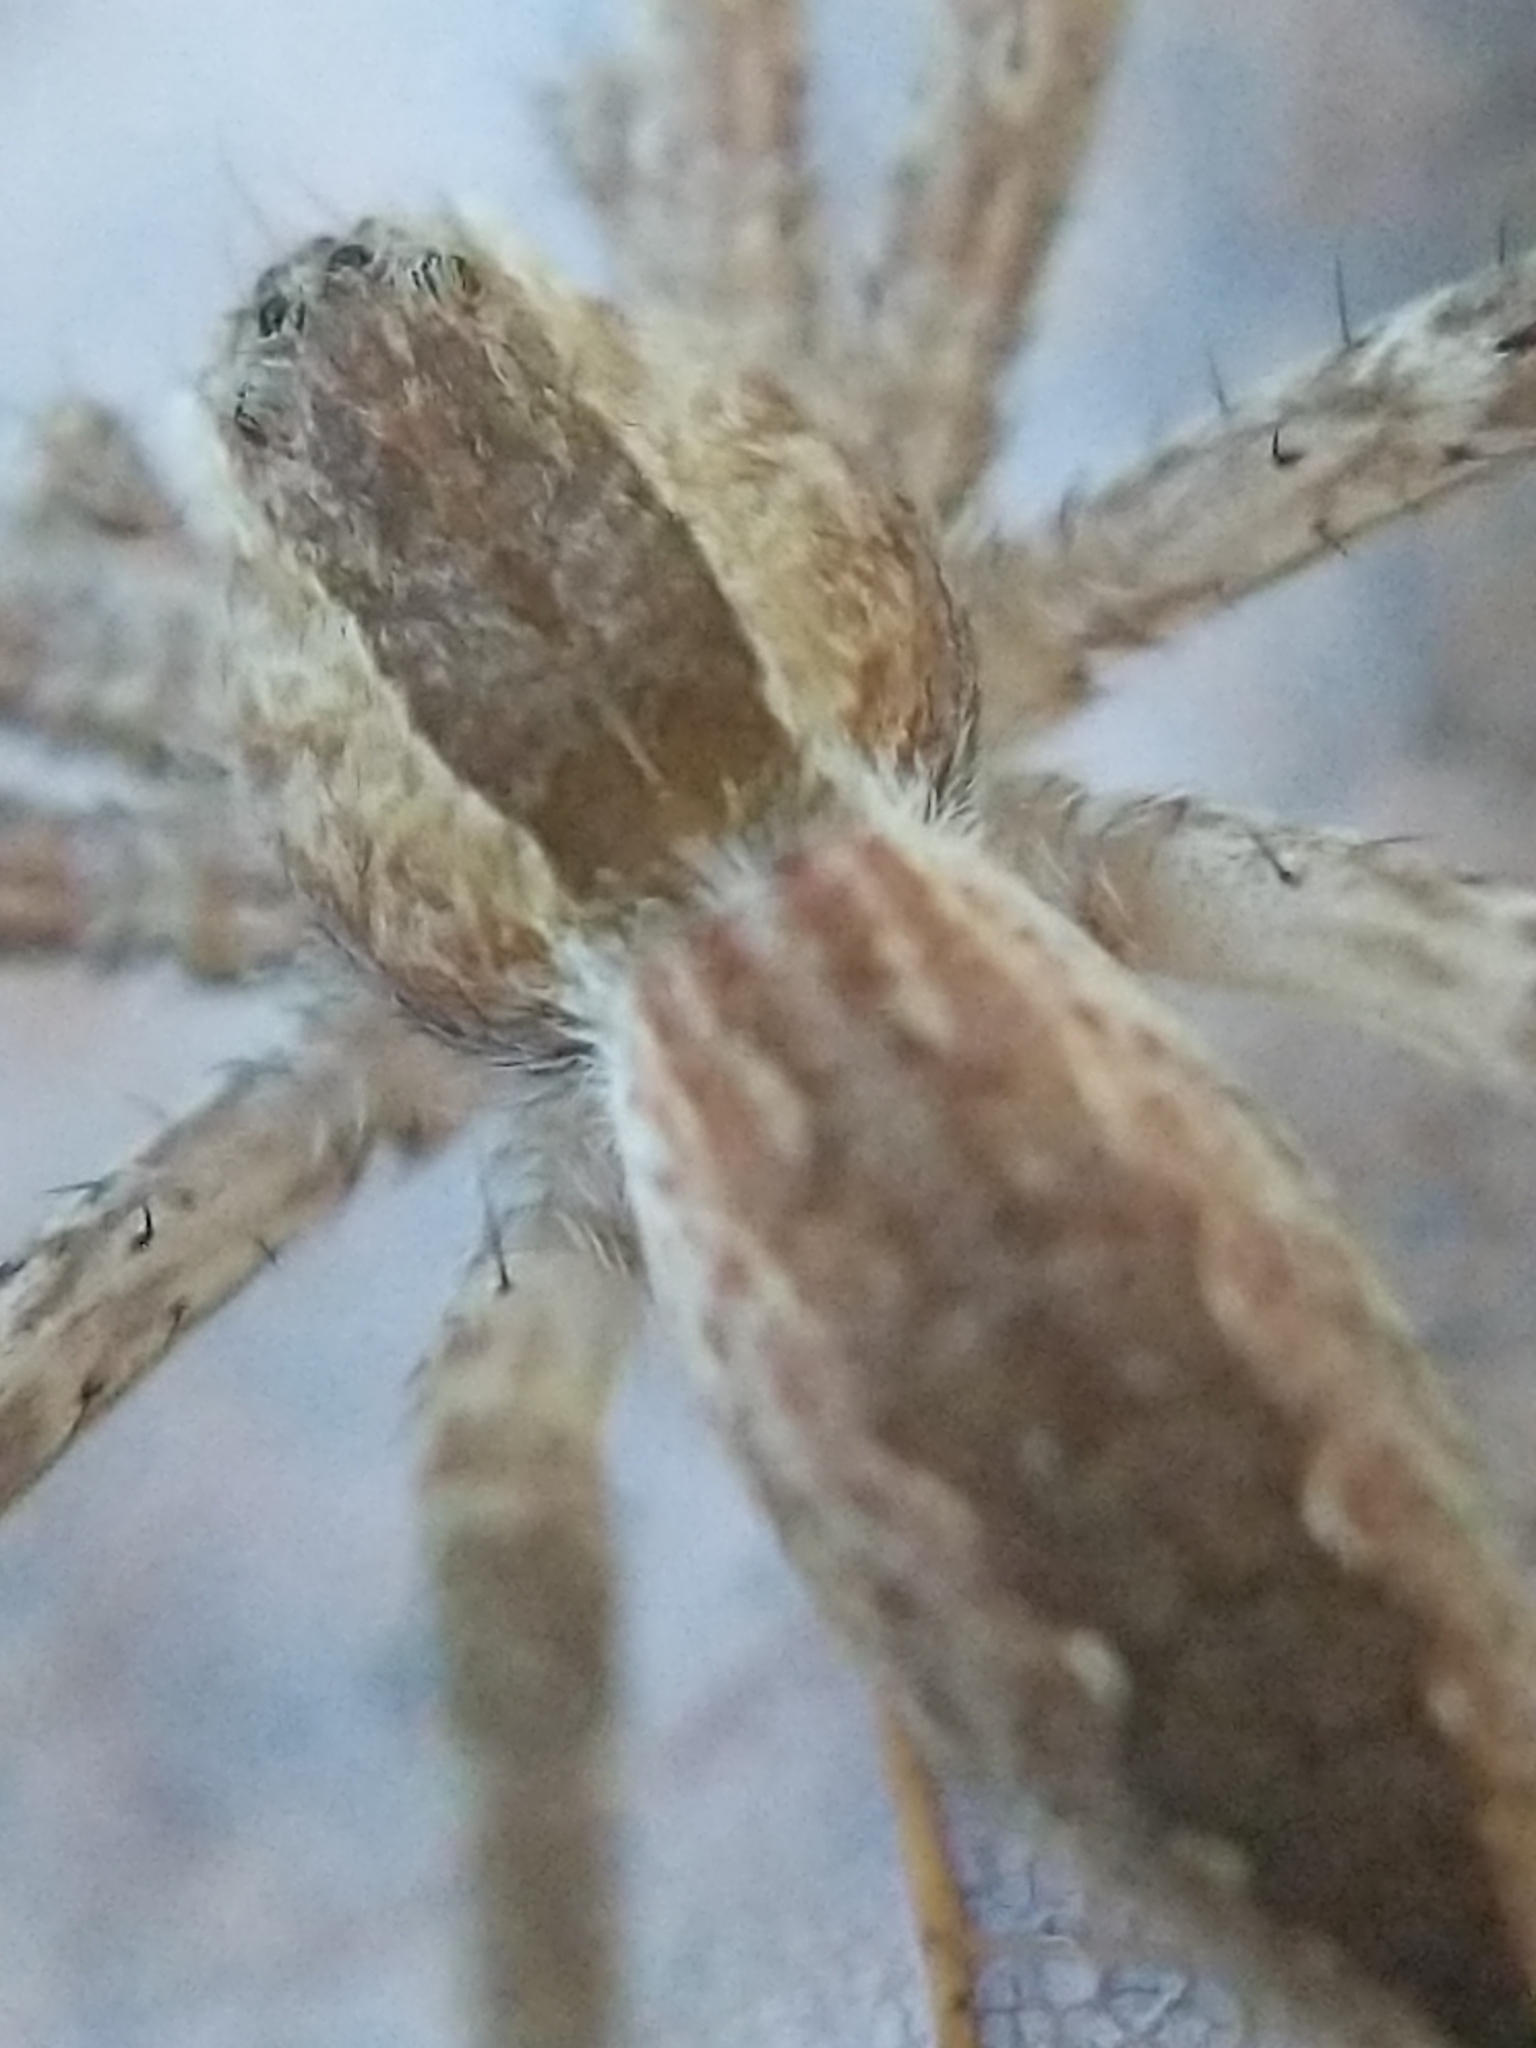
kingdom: Animalia
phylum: Arthropoda
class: Arachnida
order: Araneae
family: Pisauridae
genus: Pisaurina
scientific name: Pisaurina mira
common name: American nursery web spider
